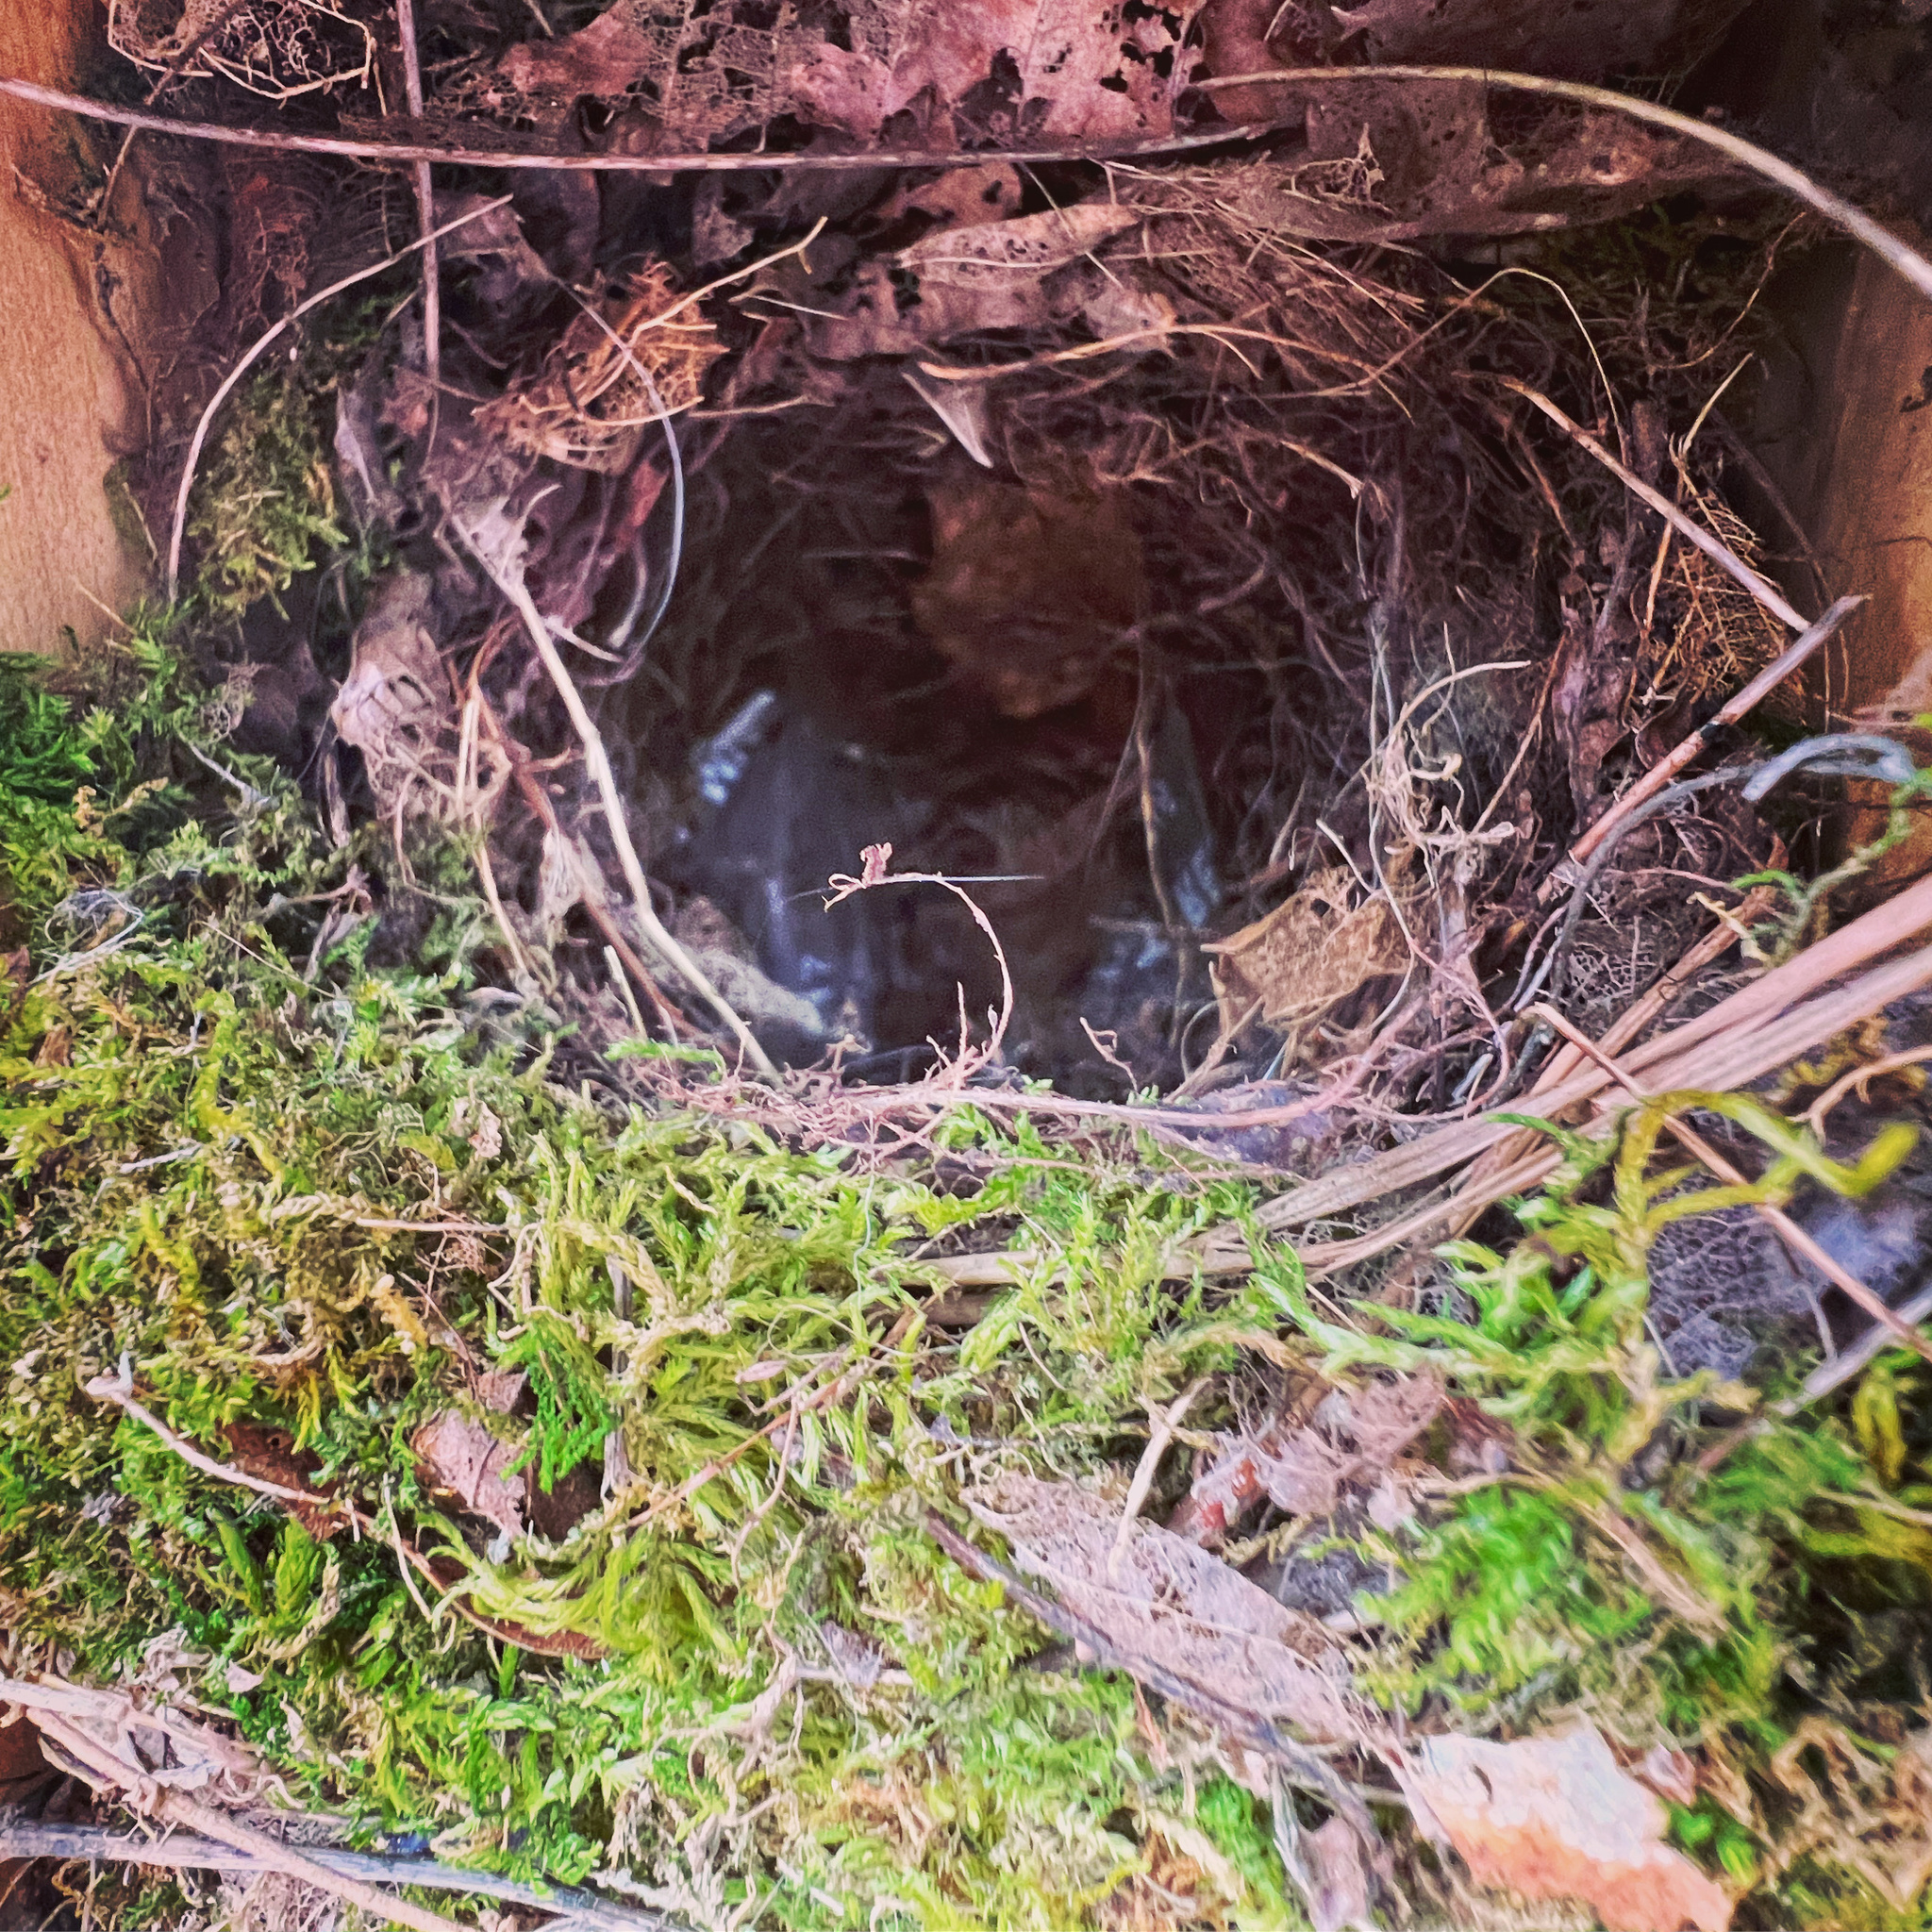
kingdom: Animalia
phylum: Chordata
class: Aves
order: Passeriformes
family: Troglodytidae
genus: Thryothorus
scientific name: Thryothorus ludovicianus
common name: Carolina wren
